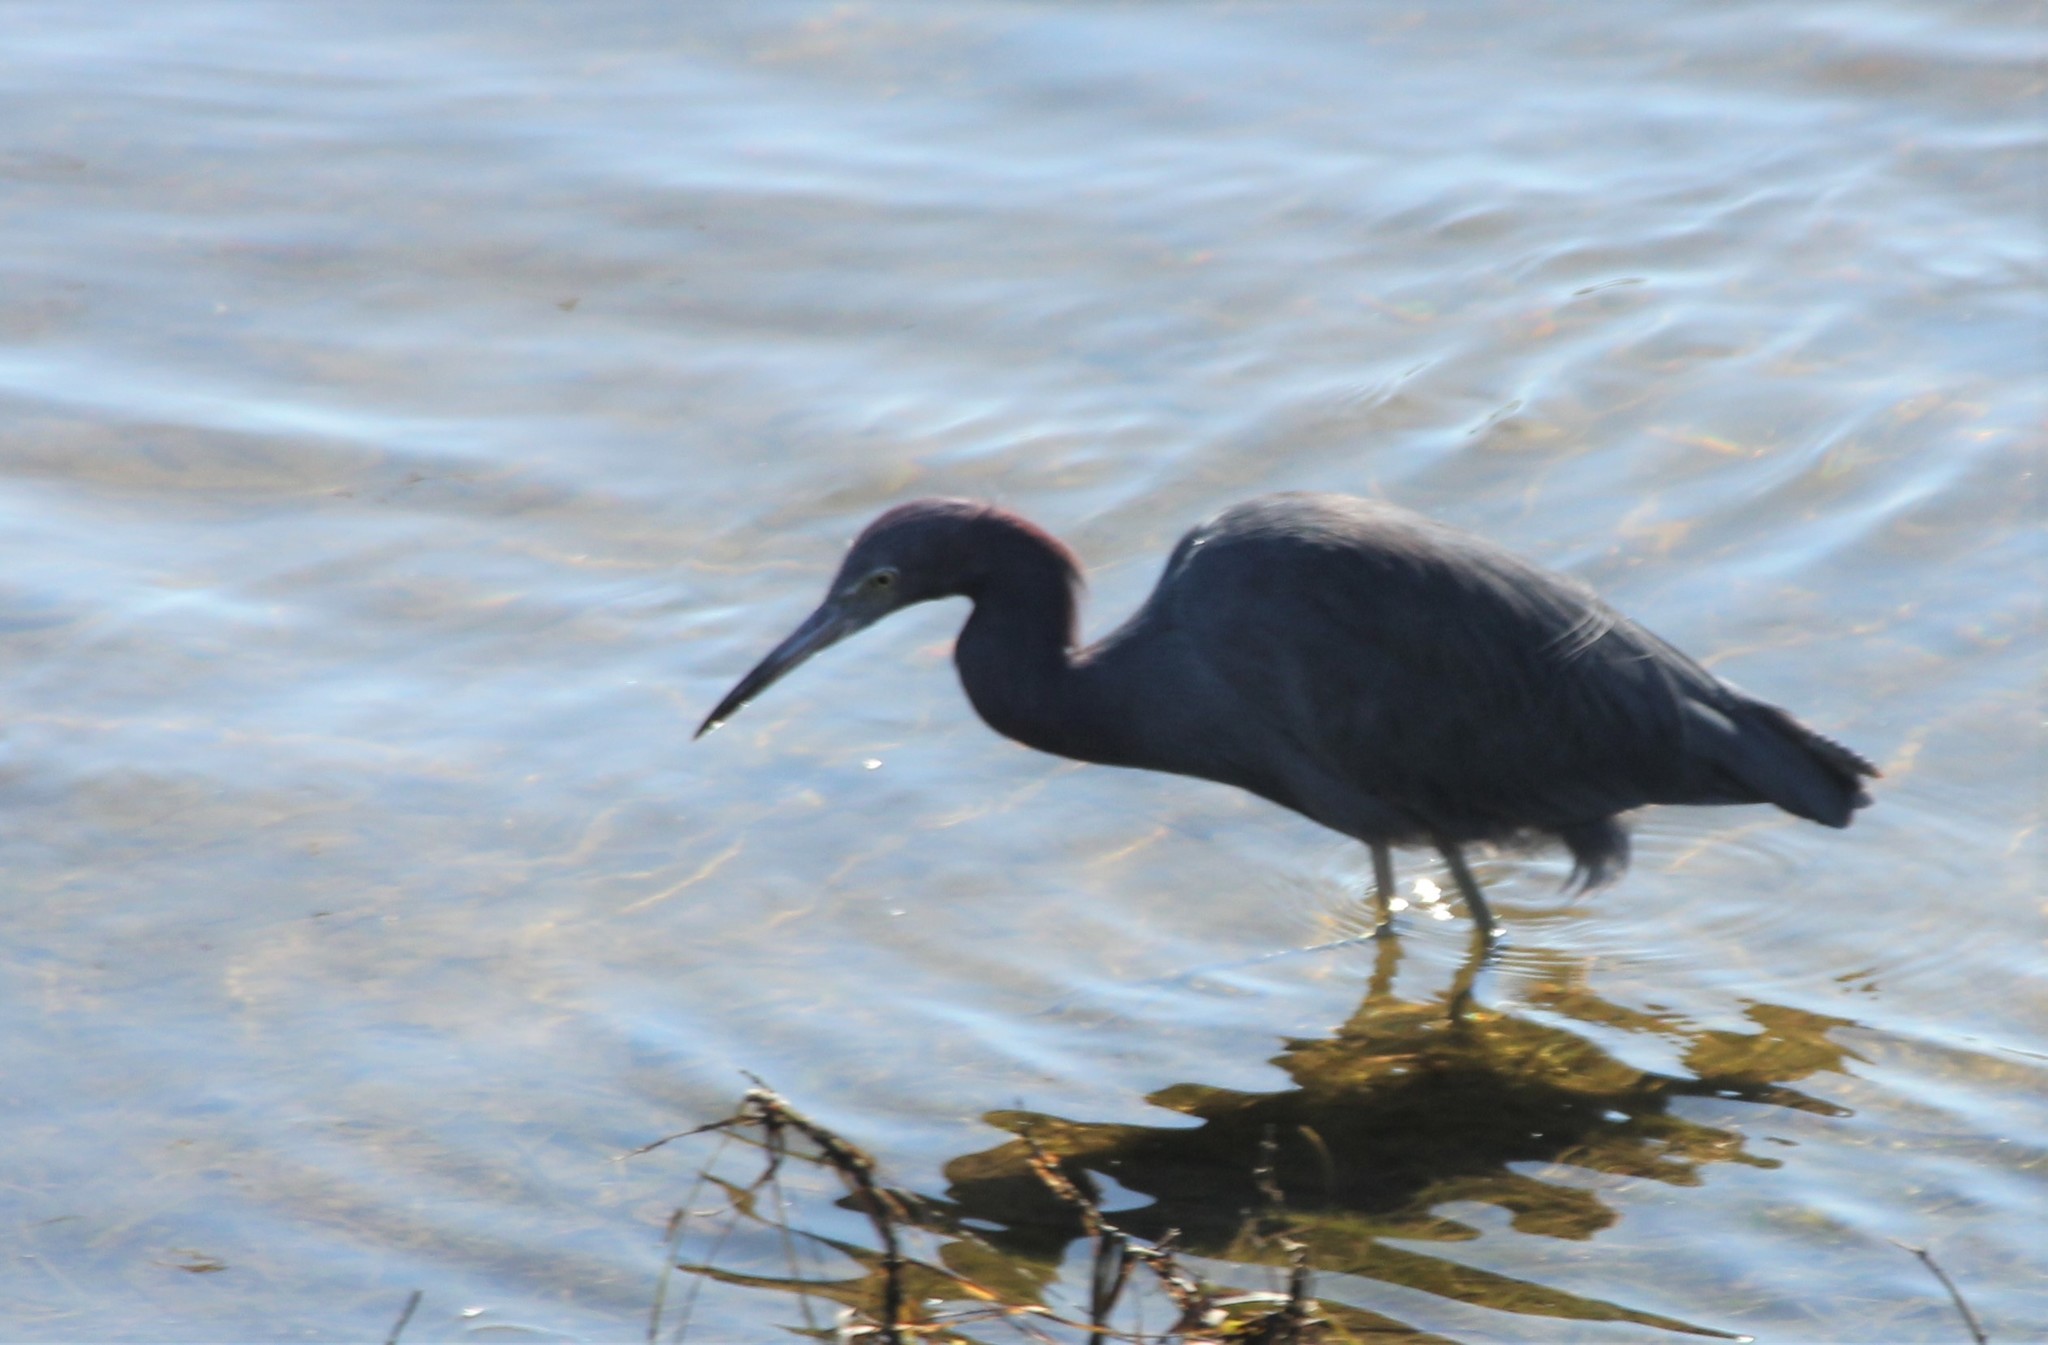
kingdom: Animalia
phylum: Chordata
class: Aves
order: Pelecaniformes
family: Ardeidae
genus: Egretta
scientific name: Egretta caerulea
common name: Little blue heron
